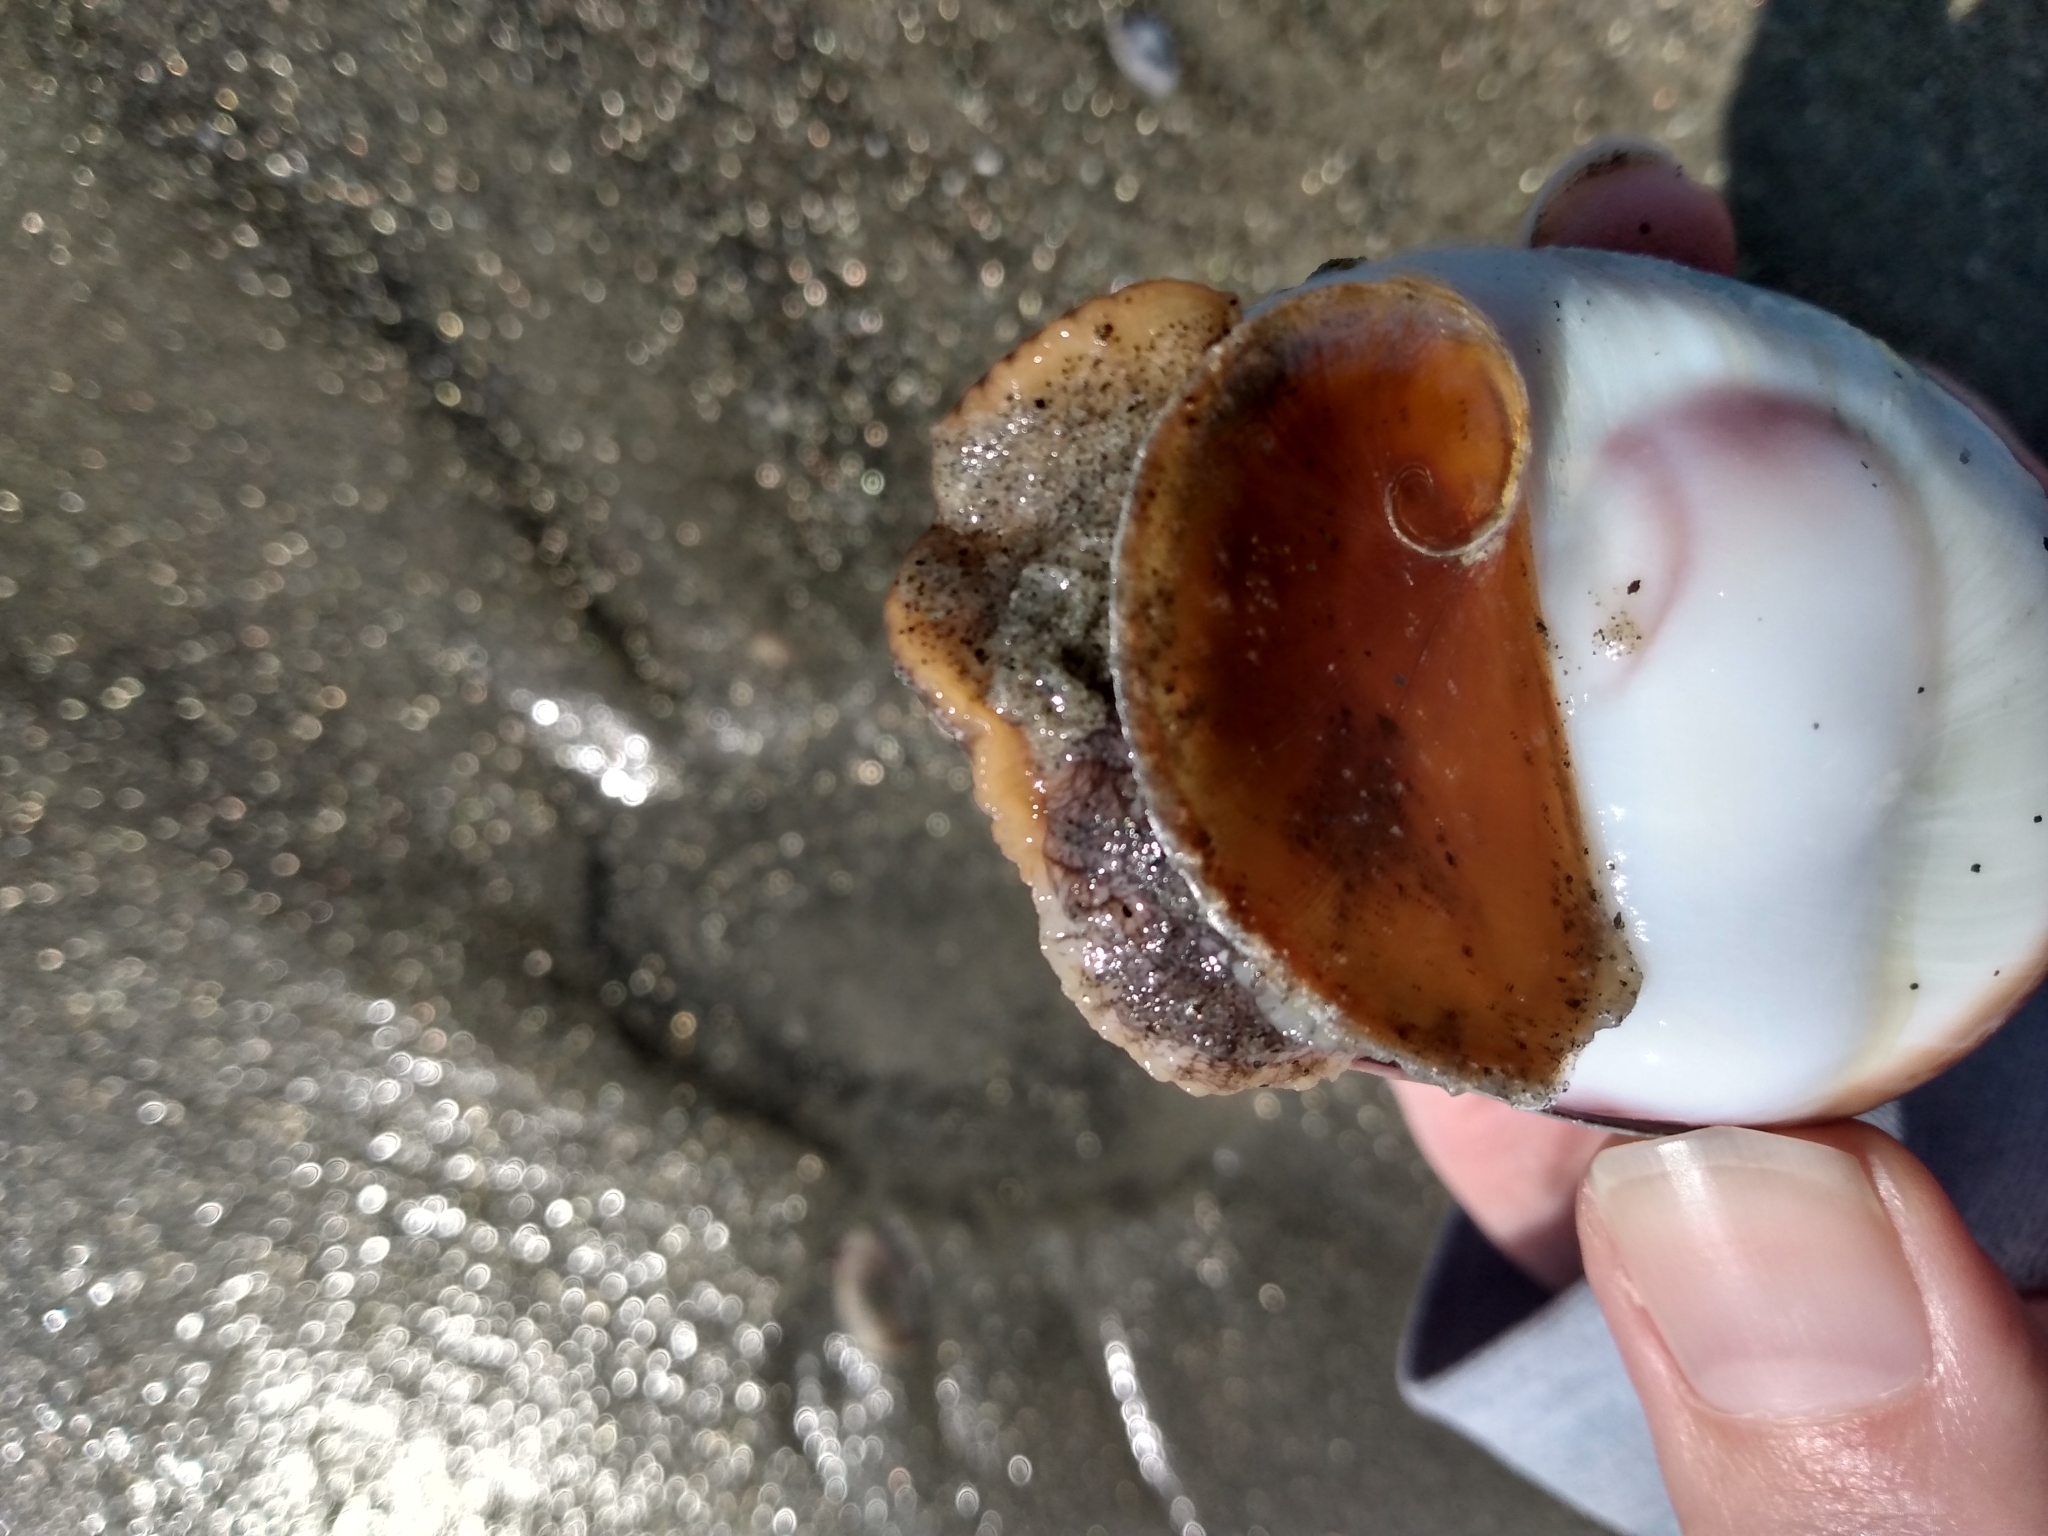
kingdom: Animalia
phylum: Mollusca
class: Gastropoda
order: Littorinimorpha
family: Naticidae
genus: Glossaulax
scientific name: Glossaulax reclusiana
